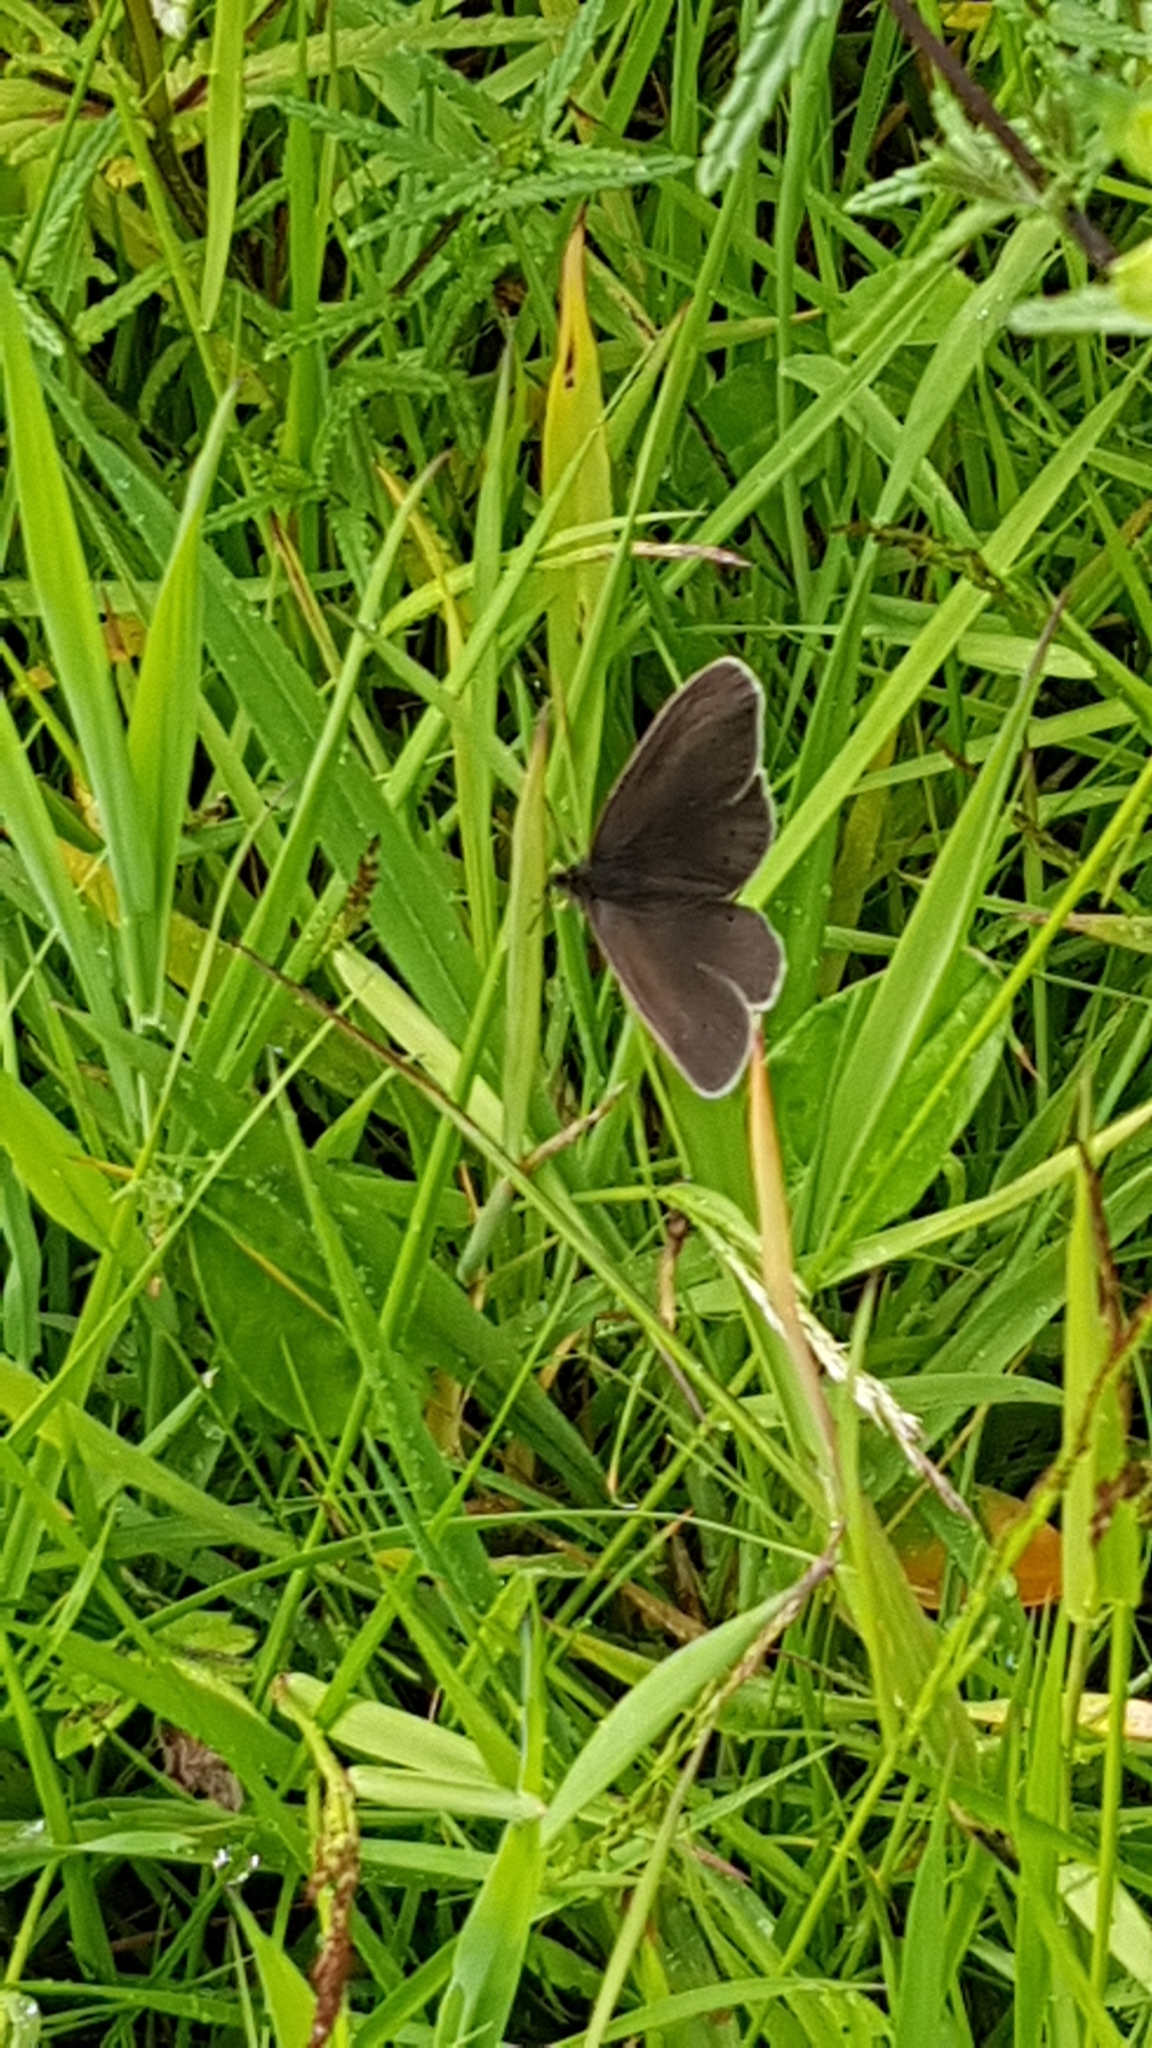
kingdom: Animalia
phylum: Arthropoda
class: Insecta
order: Lepidoptera
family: Nymphalidae
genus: Aphantopus
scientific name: Aphantopus hyperantus
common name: Ringlet
